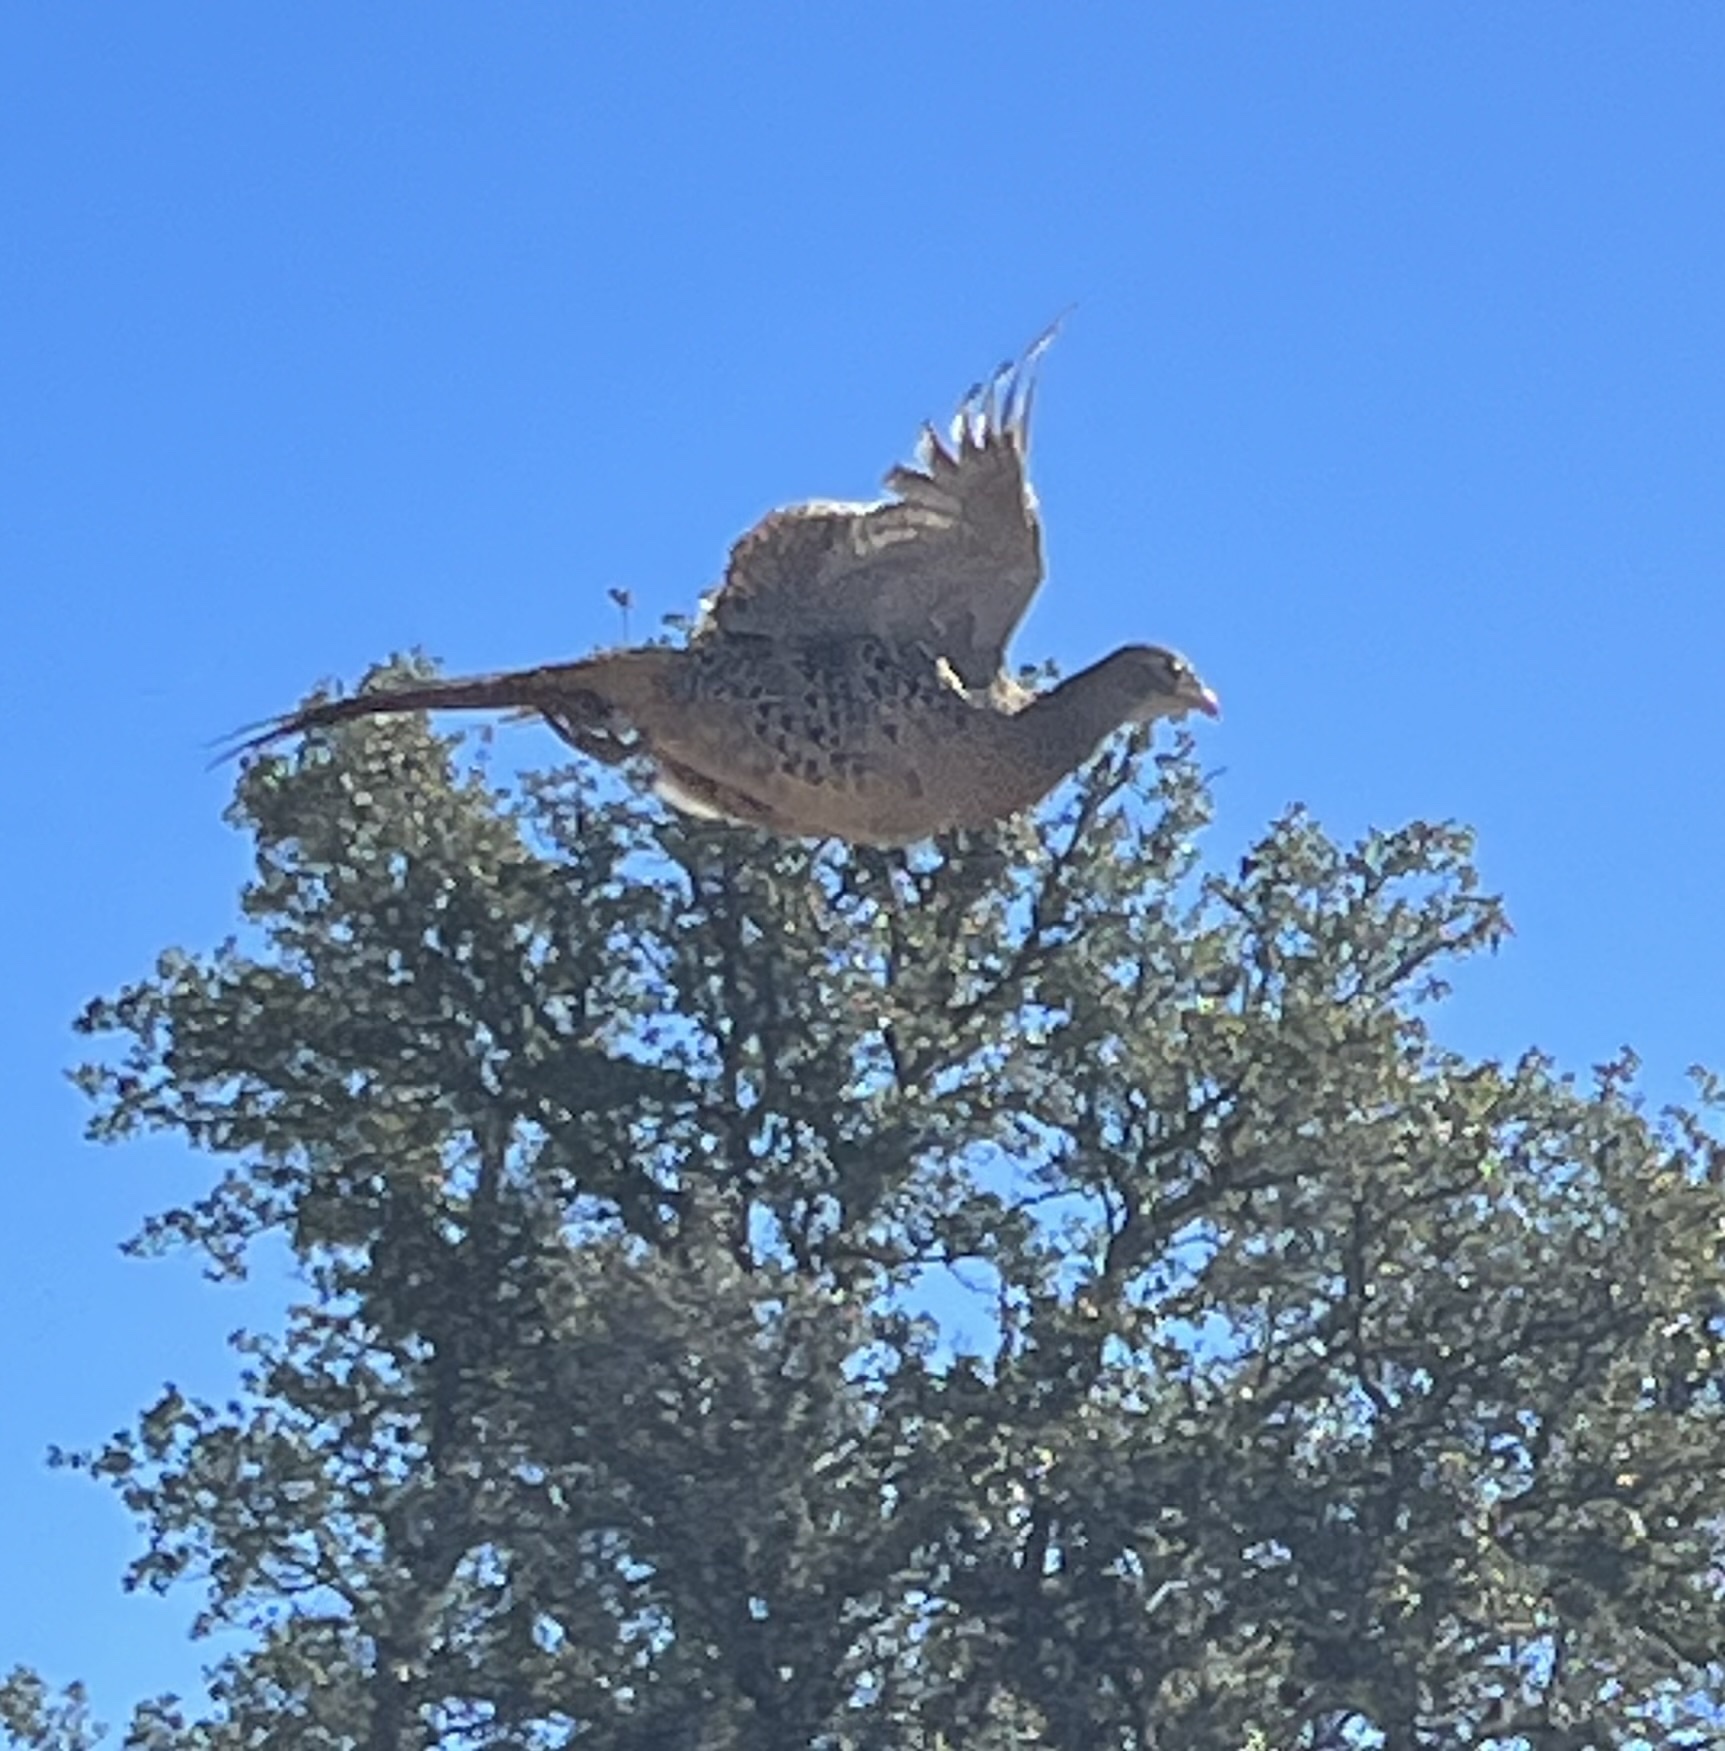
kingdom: Animalia
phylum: Chordata
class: Aves
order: Galliformes
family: Phasianidae
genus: Phasianus
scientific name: Phasianus colchicus
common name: Common pheasant
